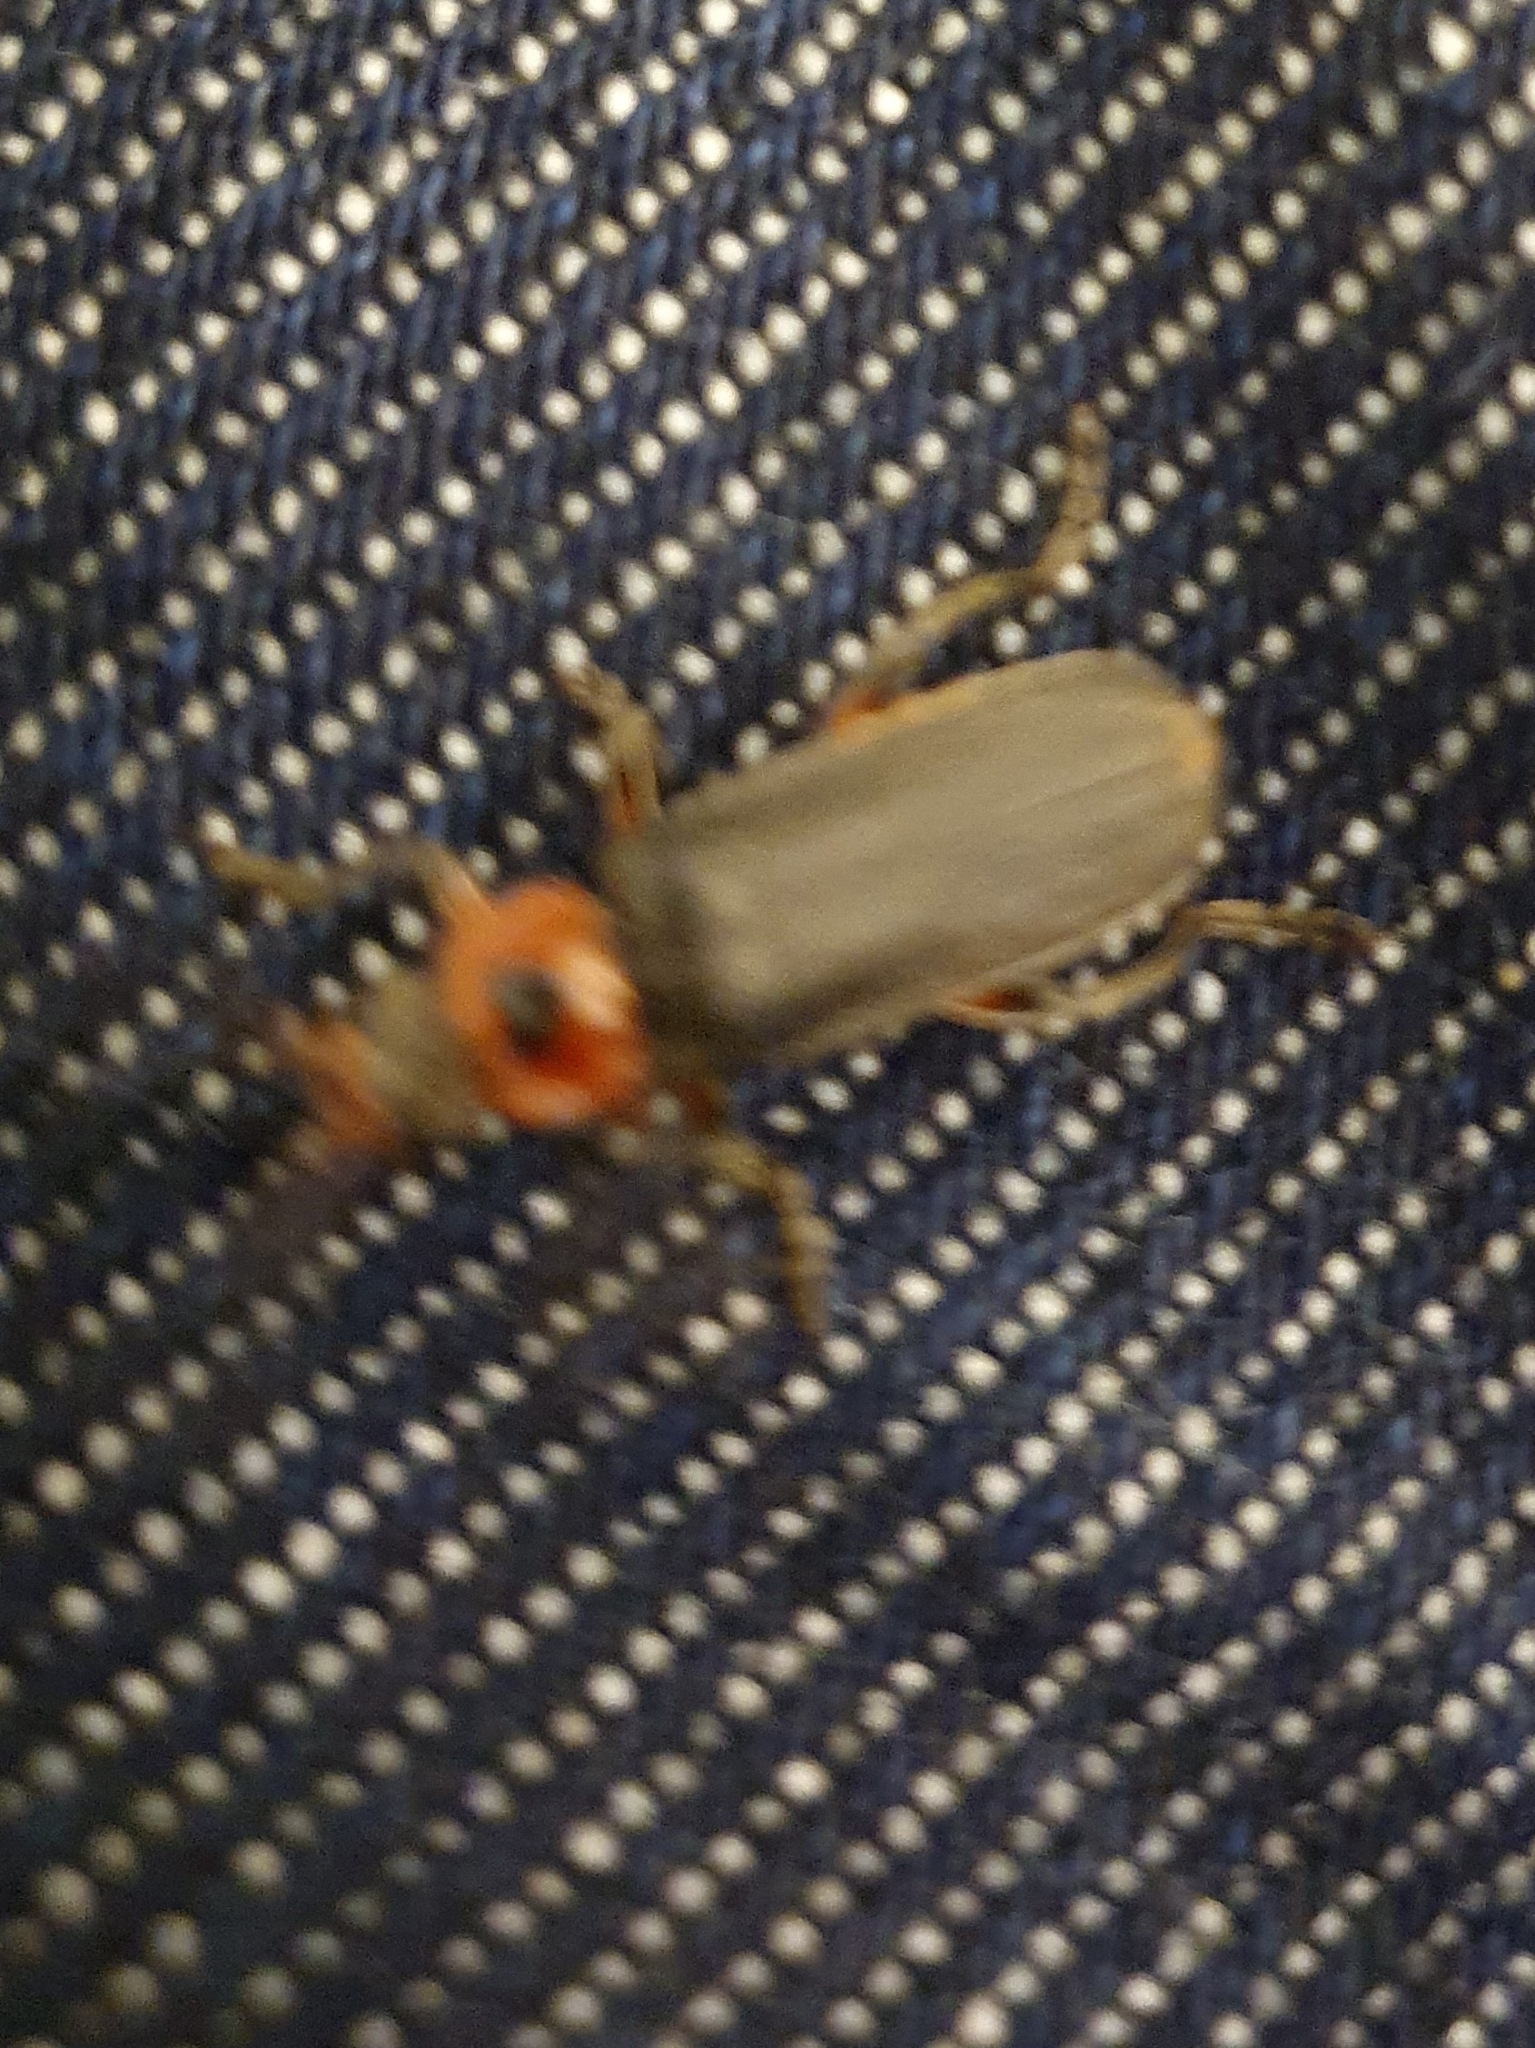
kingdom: Animalia
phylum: Arthropoda
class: Insecta
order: Coleoptera
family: Cantharidae
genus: Cantharis
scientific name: Cantharis rustica
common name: Soldier beetle
